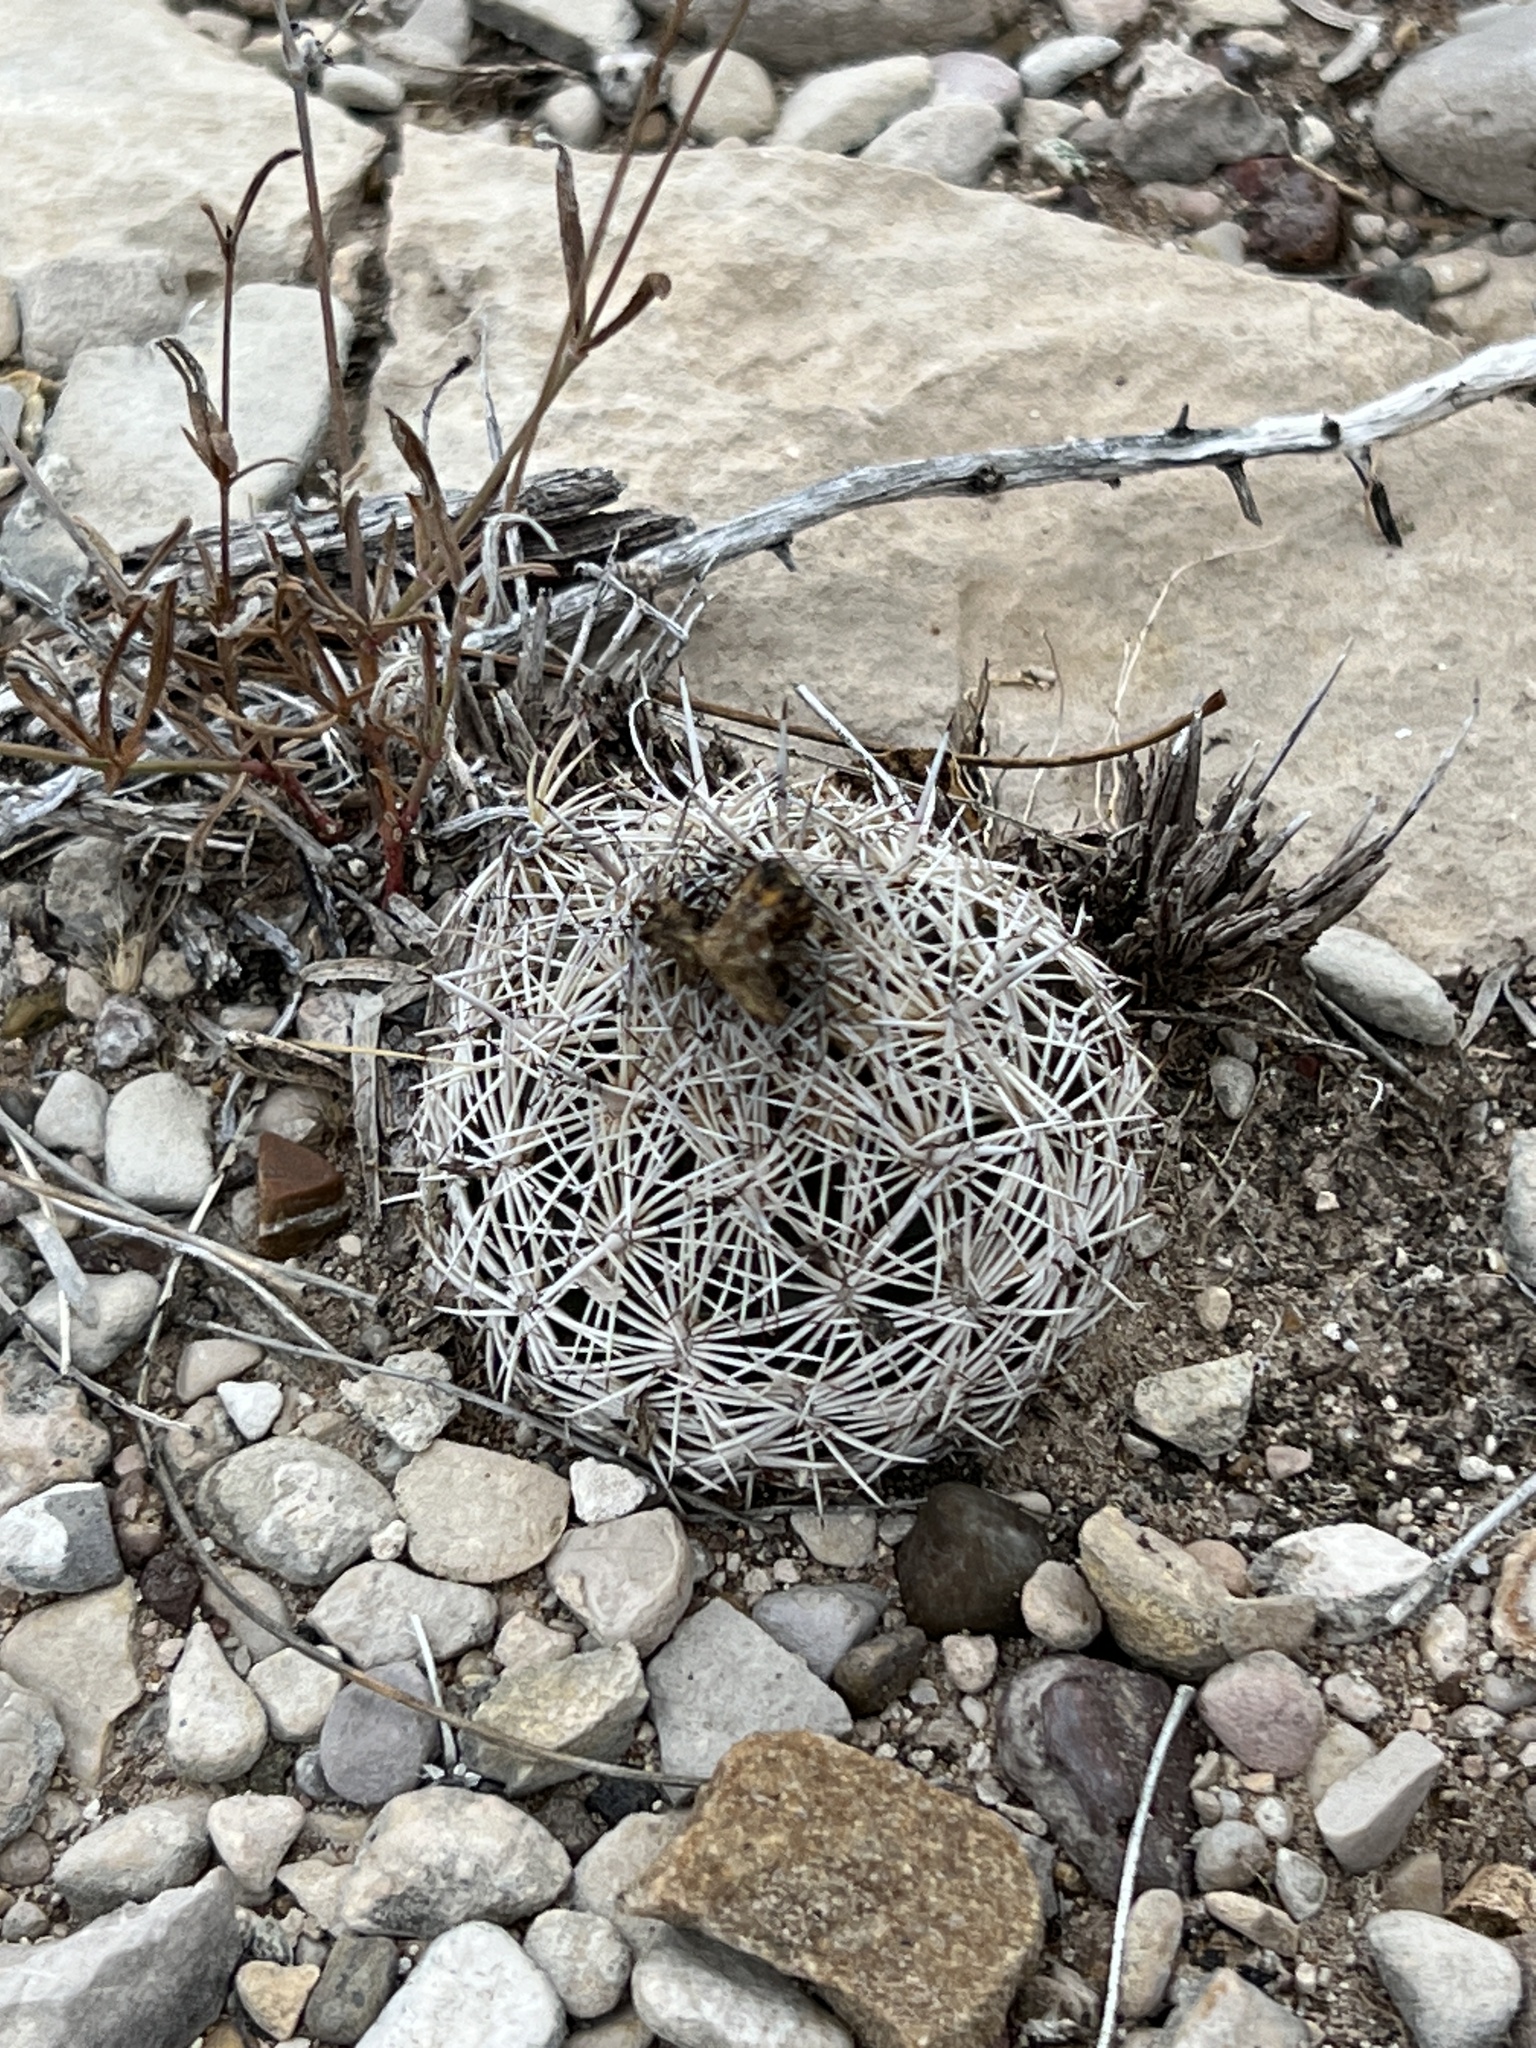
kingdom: Plantae
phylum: Tracheophyta
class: Magnoliopsida
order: Caryophyllales
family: Cactaceae
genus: Coryphantha
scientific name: Coryphantha echinus
